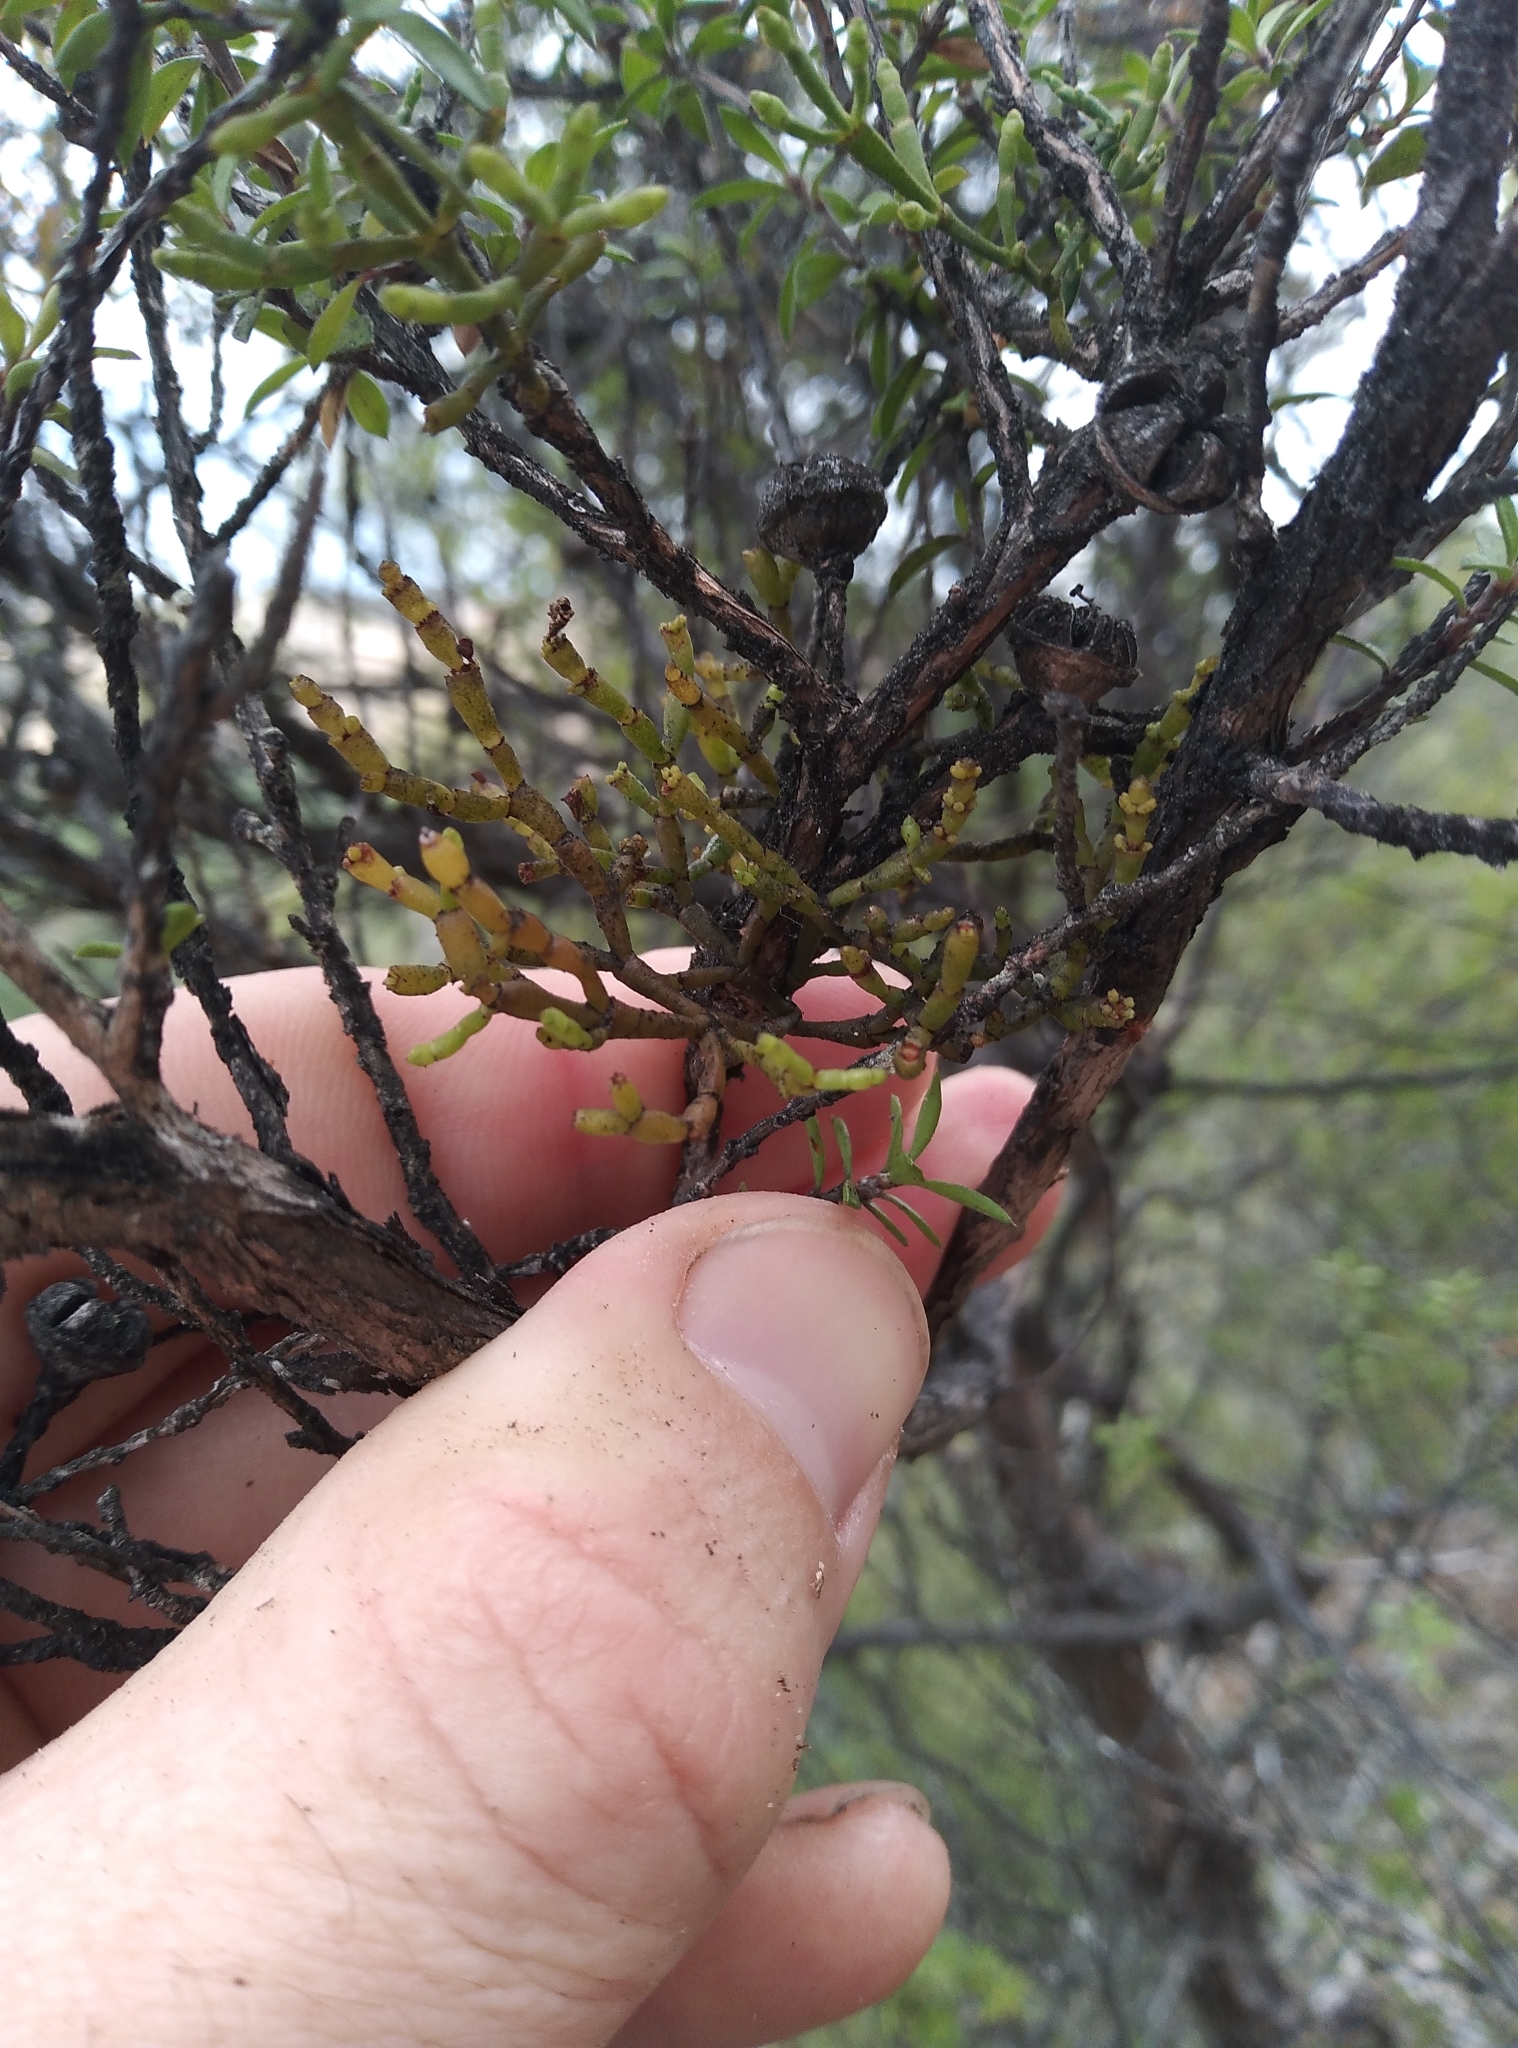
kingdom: Plantae
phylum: Tracheophyta
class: Magnoliopsida
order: Santalales
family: Viscaceae
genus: Korthalsella
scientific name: Korthalsella salicornioides
